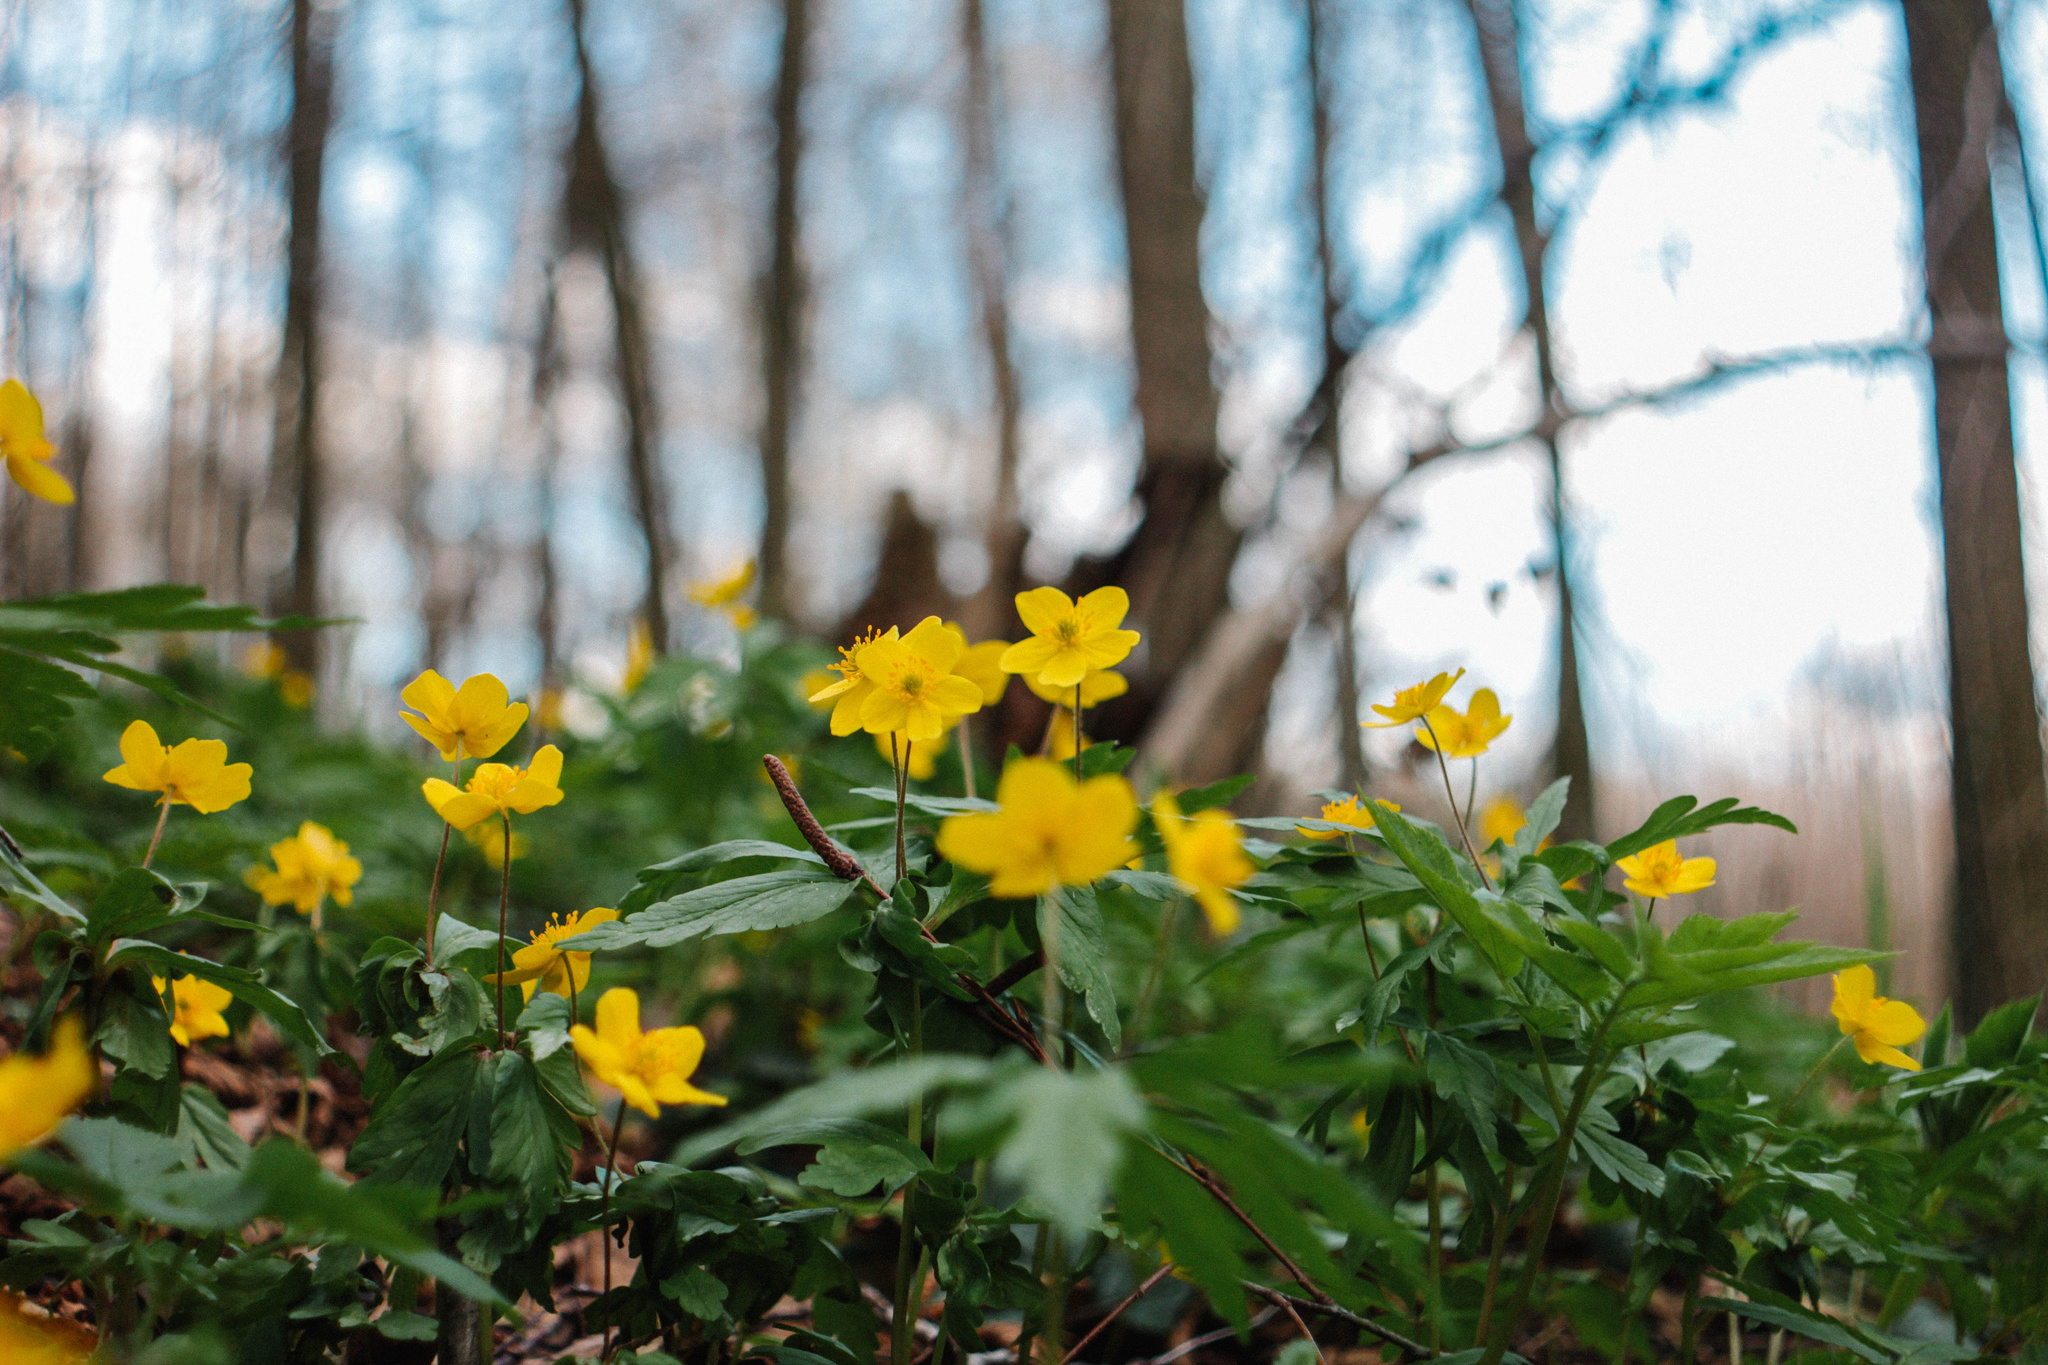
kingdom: Plantae
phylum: Tracheophyta
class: Magnoliopsida
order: Ranunculales
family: Ranunculaceae
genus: Anemone
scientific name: Anemone ranunculoides
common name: Yellow anemone
